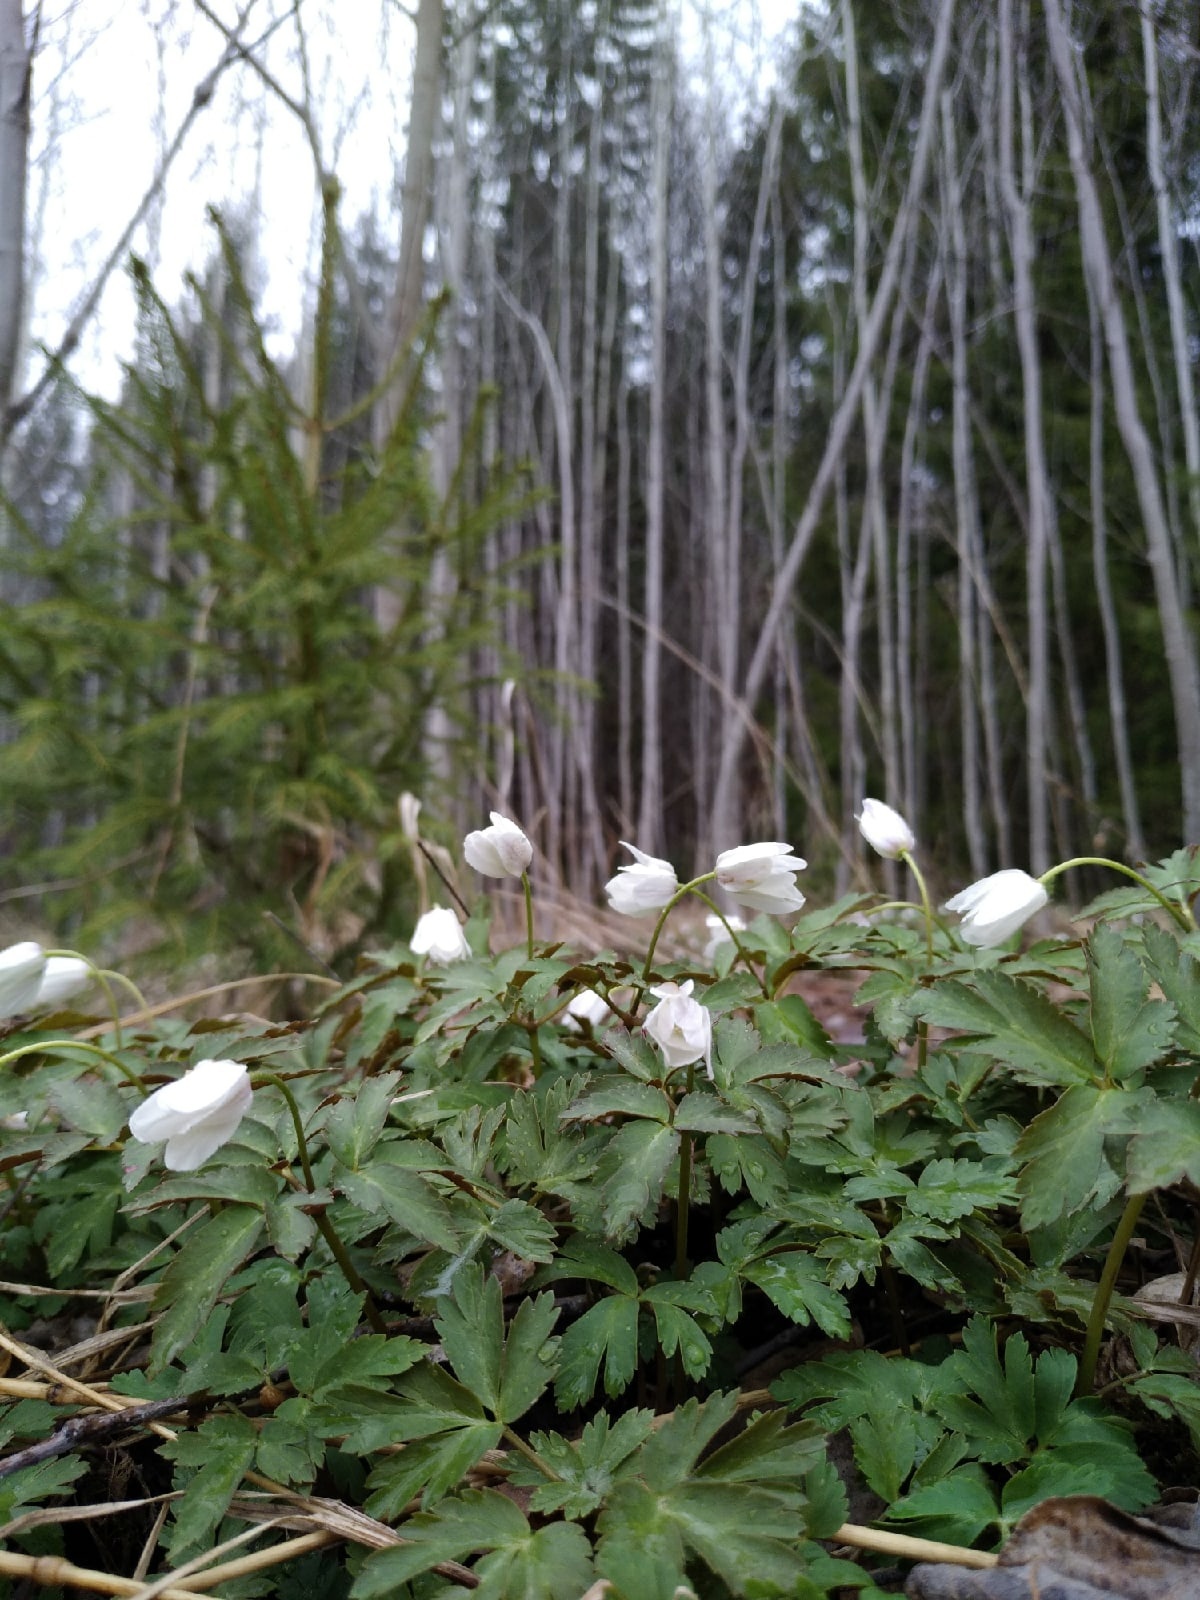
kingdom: Plantae
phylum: Tracheophyta
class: Magnoliopsida
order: Ranunculales
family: Ranunculaceae
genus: Anemone
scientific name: Anemone altaica
